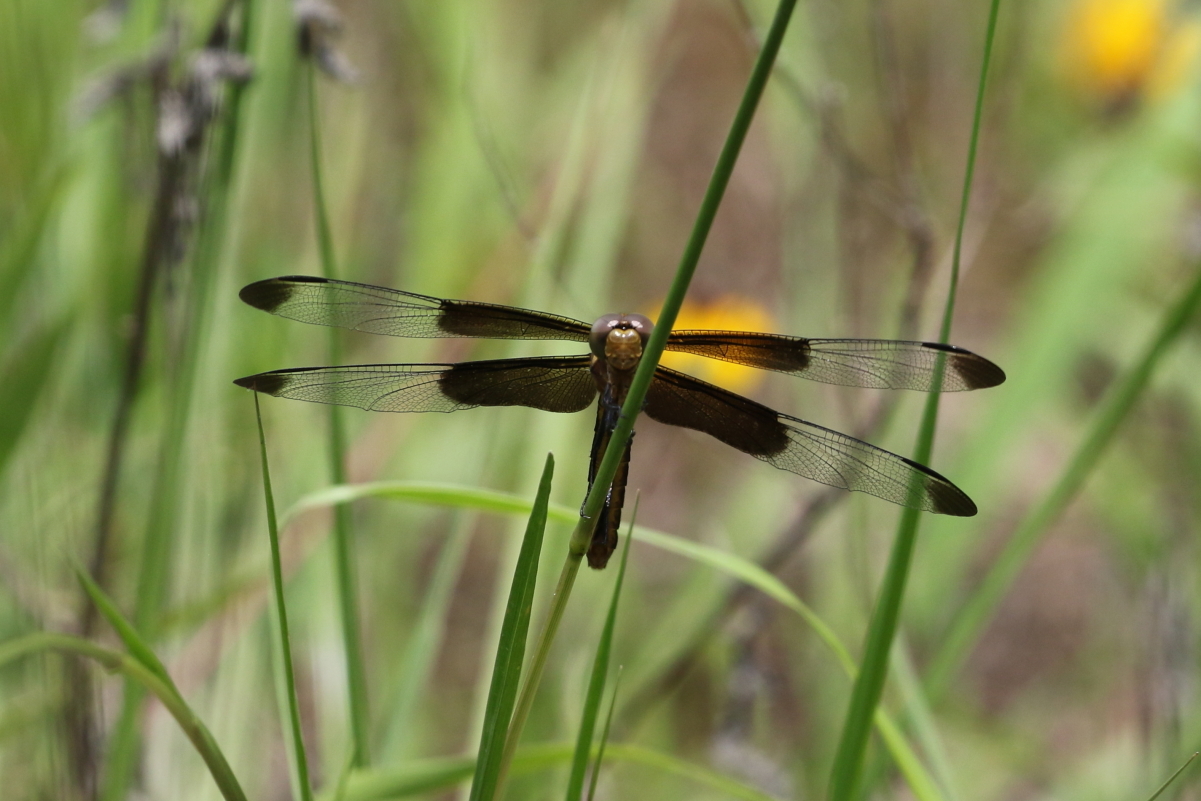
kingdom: Animalia
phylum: Arthropoda
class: Insecta
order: Odonata
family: Libellulidae
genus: Libellula
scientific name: Libellula luctuosa
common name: Widow skimmer
